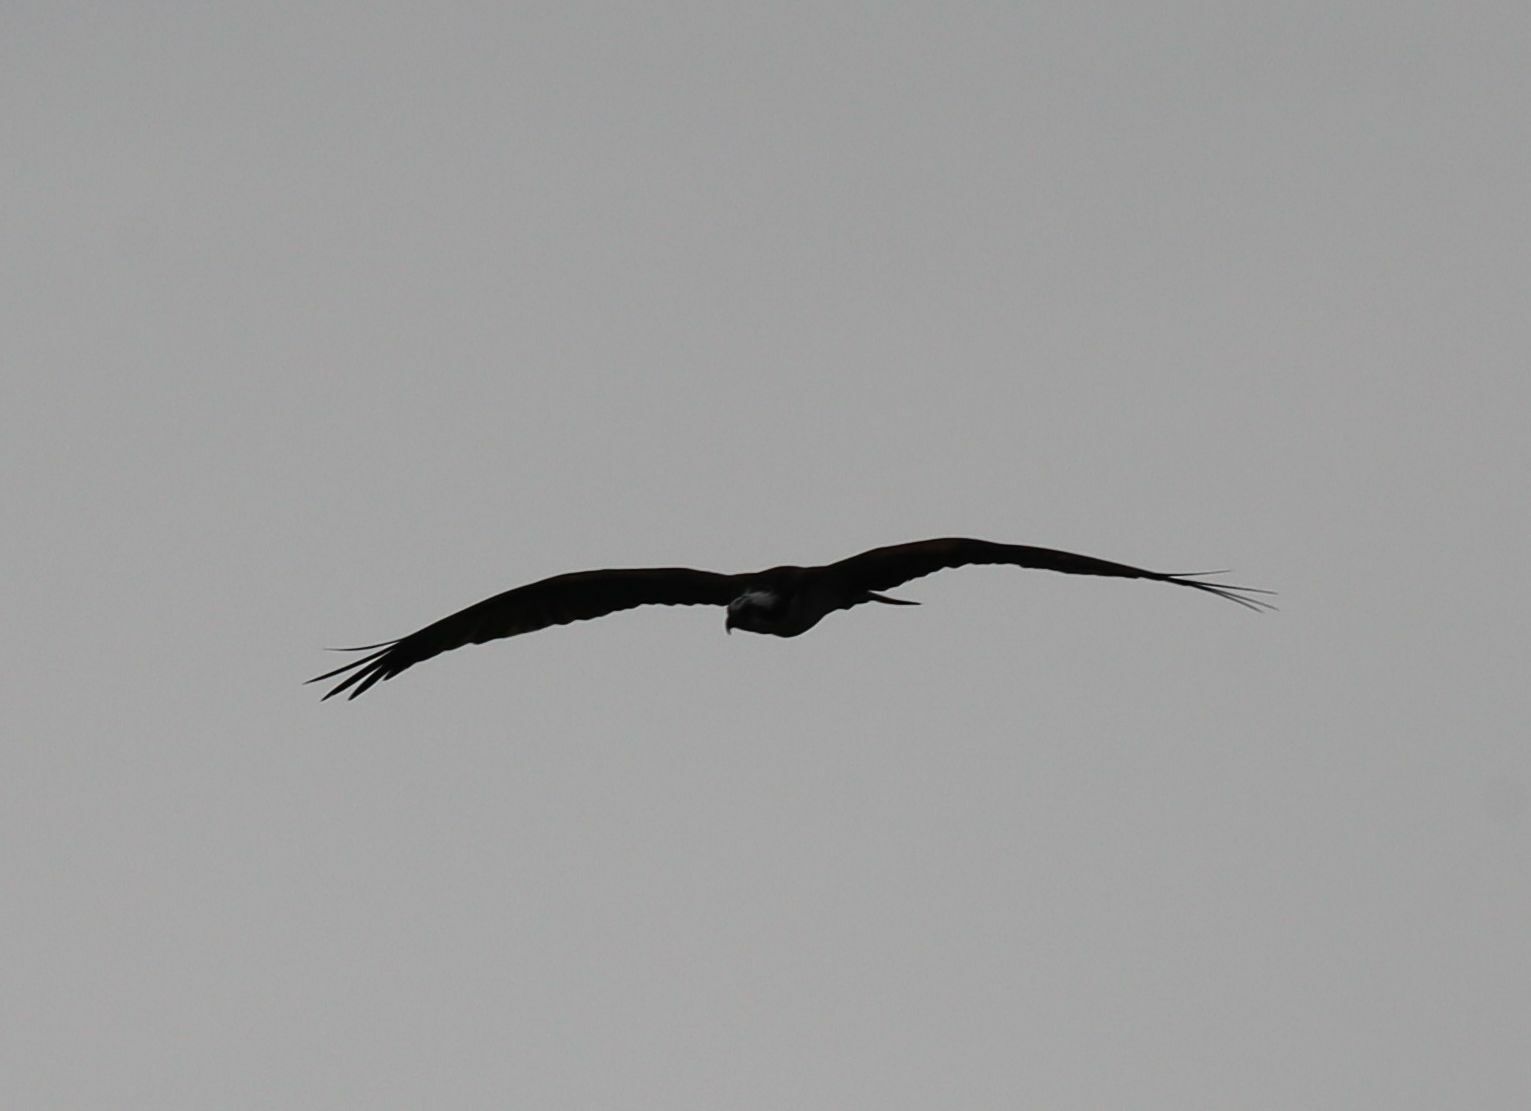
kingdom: Animalia
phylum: Chordata
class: Aves
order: Accipitriformes
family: Pandionidae
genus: Pandion
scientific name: Pandion haliaetus
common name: Osprey
